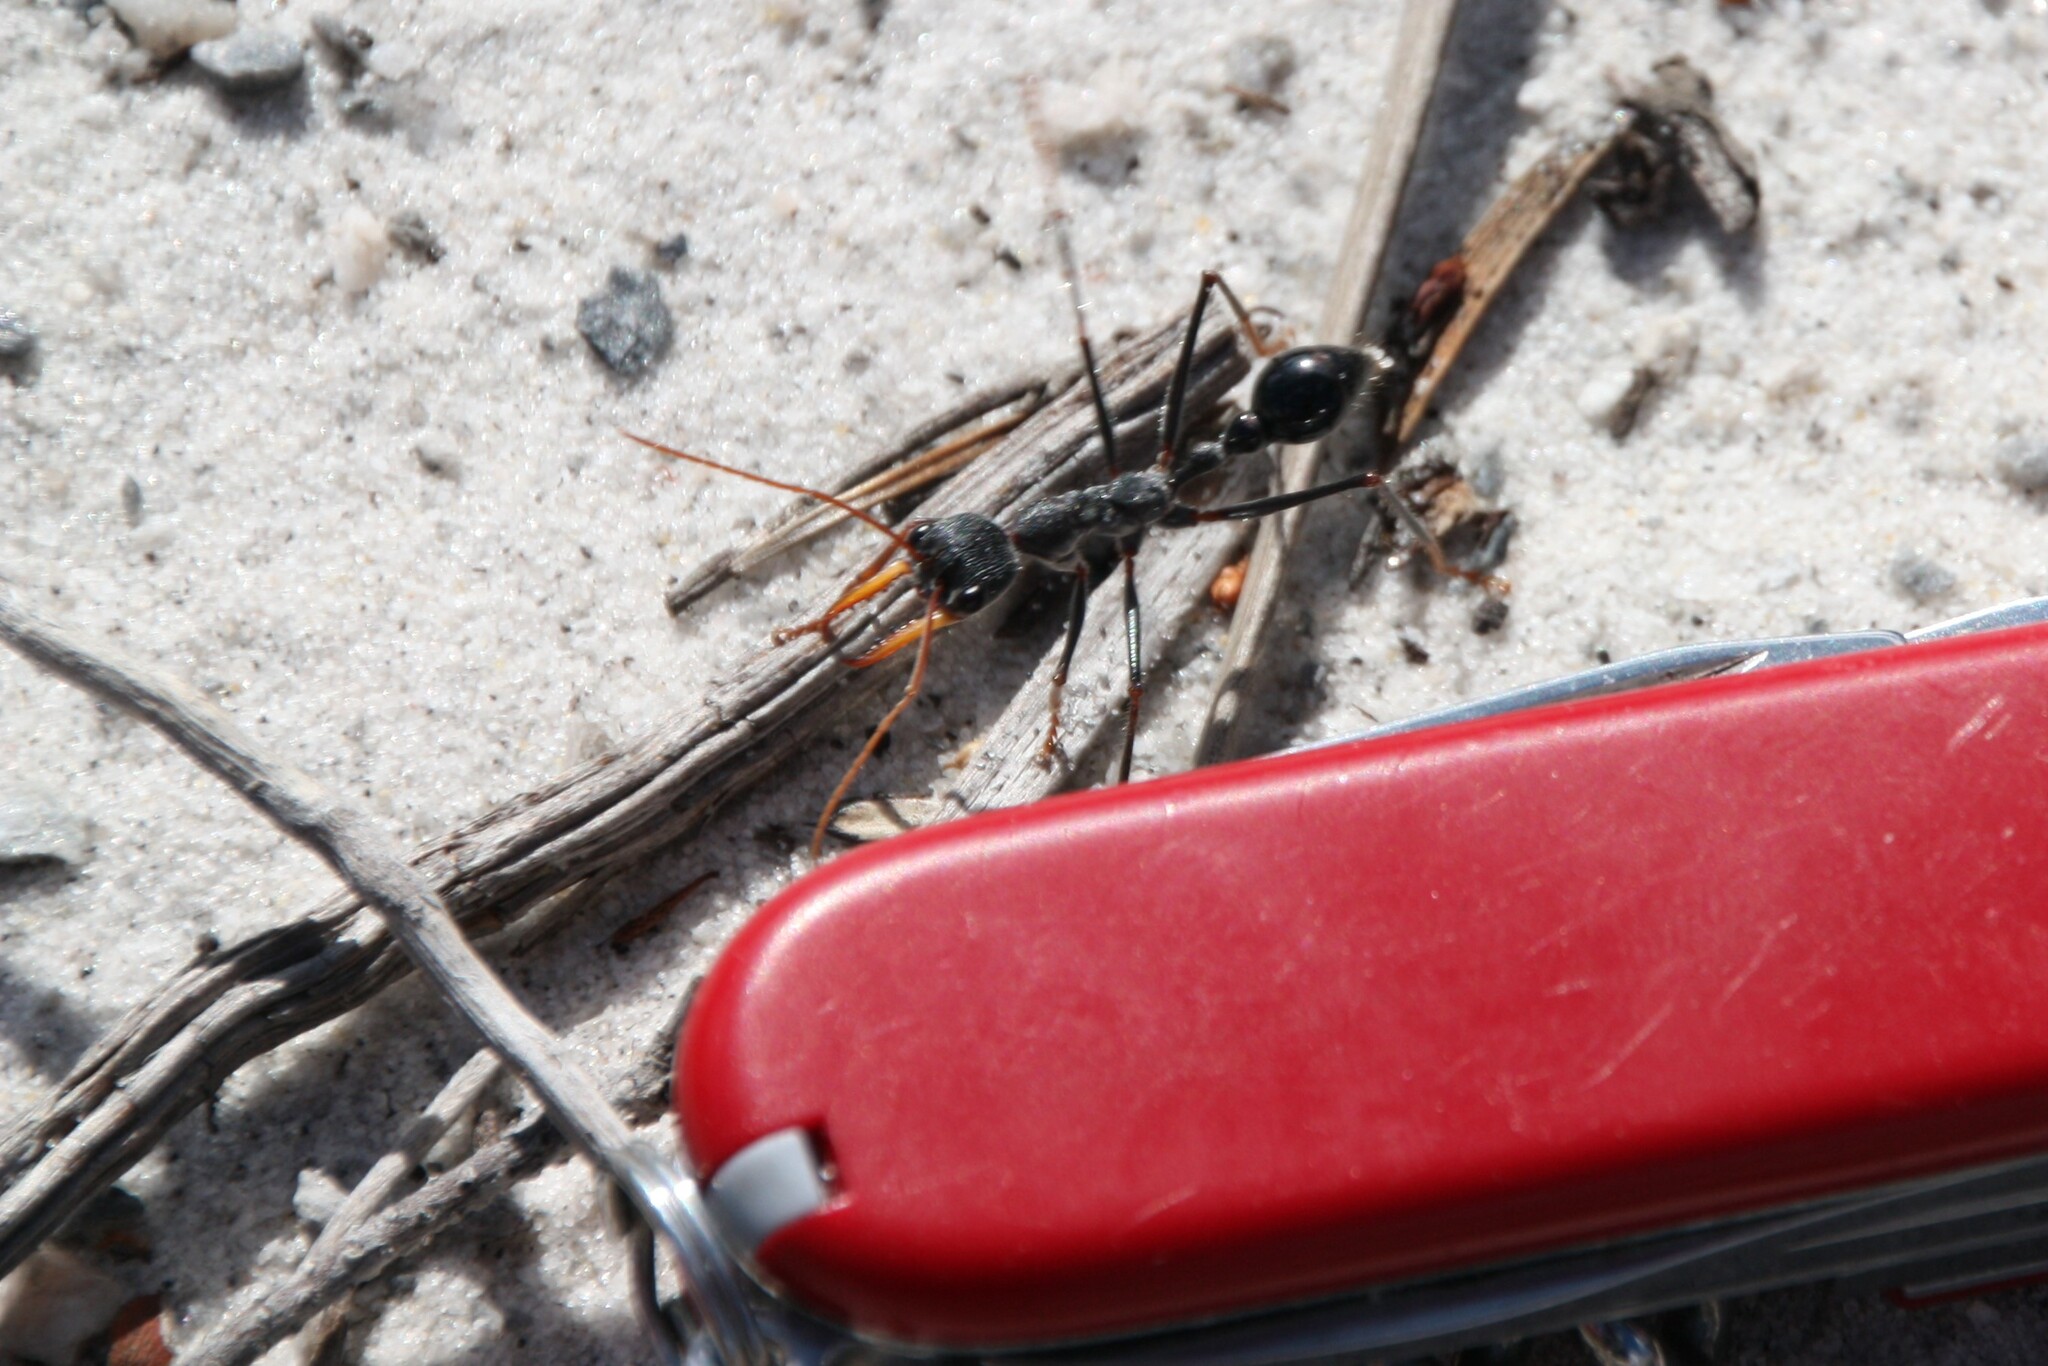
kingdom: Animalia
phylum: Arthropoda
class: Insecta
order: Hymenoptera
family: Formicidae
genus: Myrmecia
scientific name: Myrmecia rubripes
